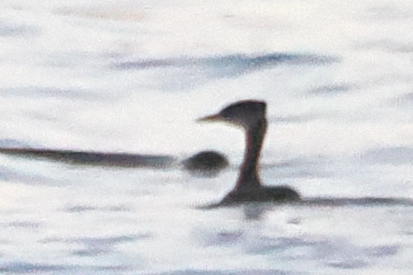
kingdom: Animalia
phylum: Chordata
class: Aves
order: Podicipediformes
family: Podicipedidae
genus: Podiceps
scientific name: Podiceps grisegena
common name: Red-necked grebe
